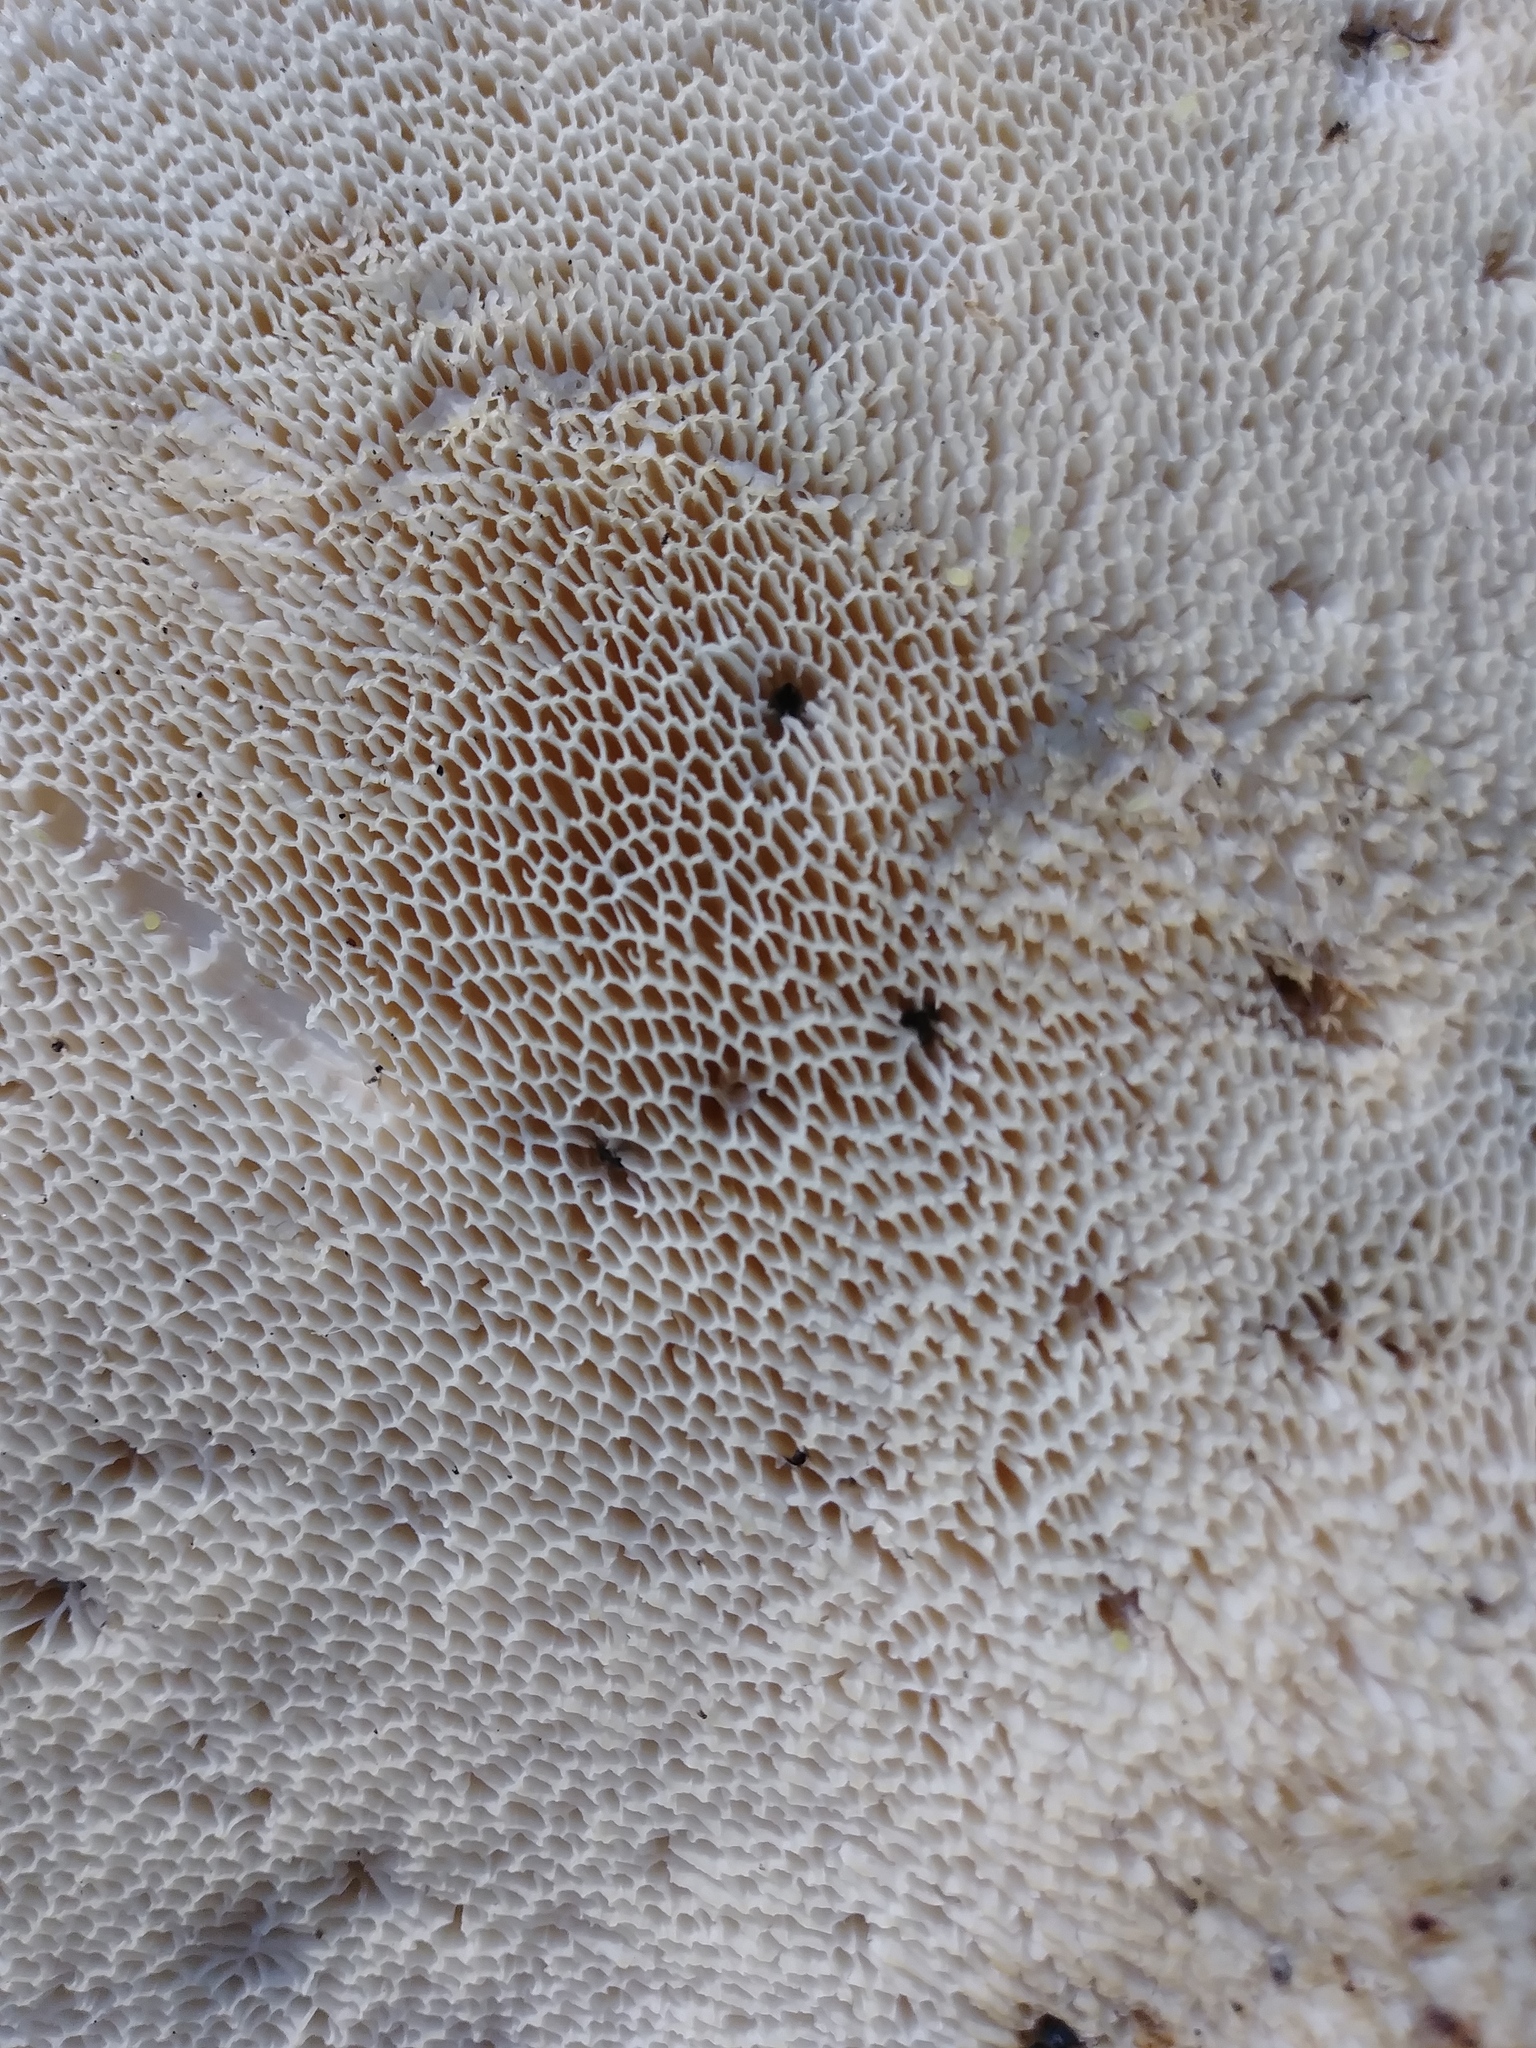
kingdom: Fungi
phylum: Basidiomycota
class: Agaricomycetes
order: Polyporales
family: Polyporaceae
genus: Cerioporus
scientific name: Cerioporus squamosus
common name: Dryad's saddle
